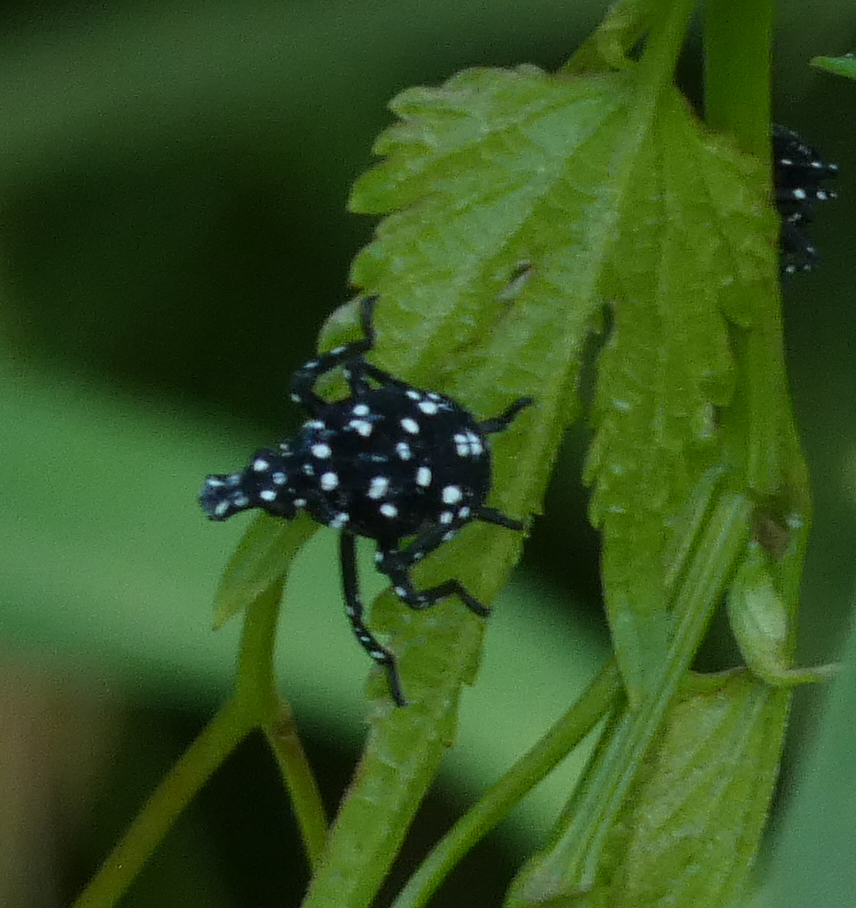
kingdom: Animalia
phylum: Arthropoda
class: Insecta
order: Hemiptera
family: Fulgoridae
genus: Lycorma
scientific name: Lycorma delicatula
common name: Spotted lanternfly
